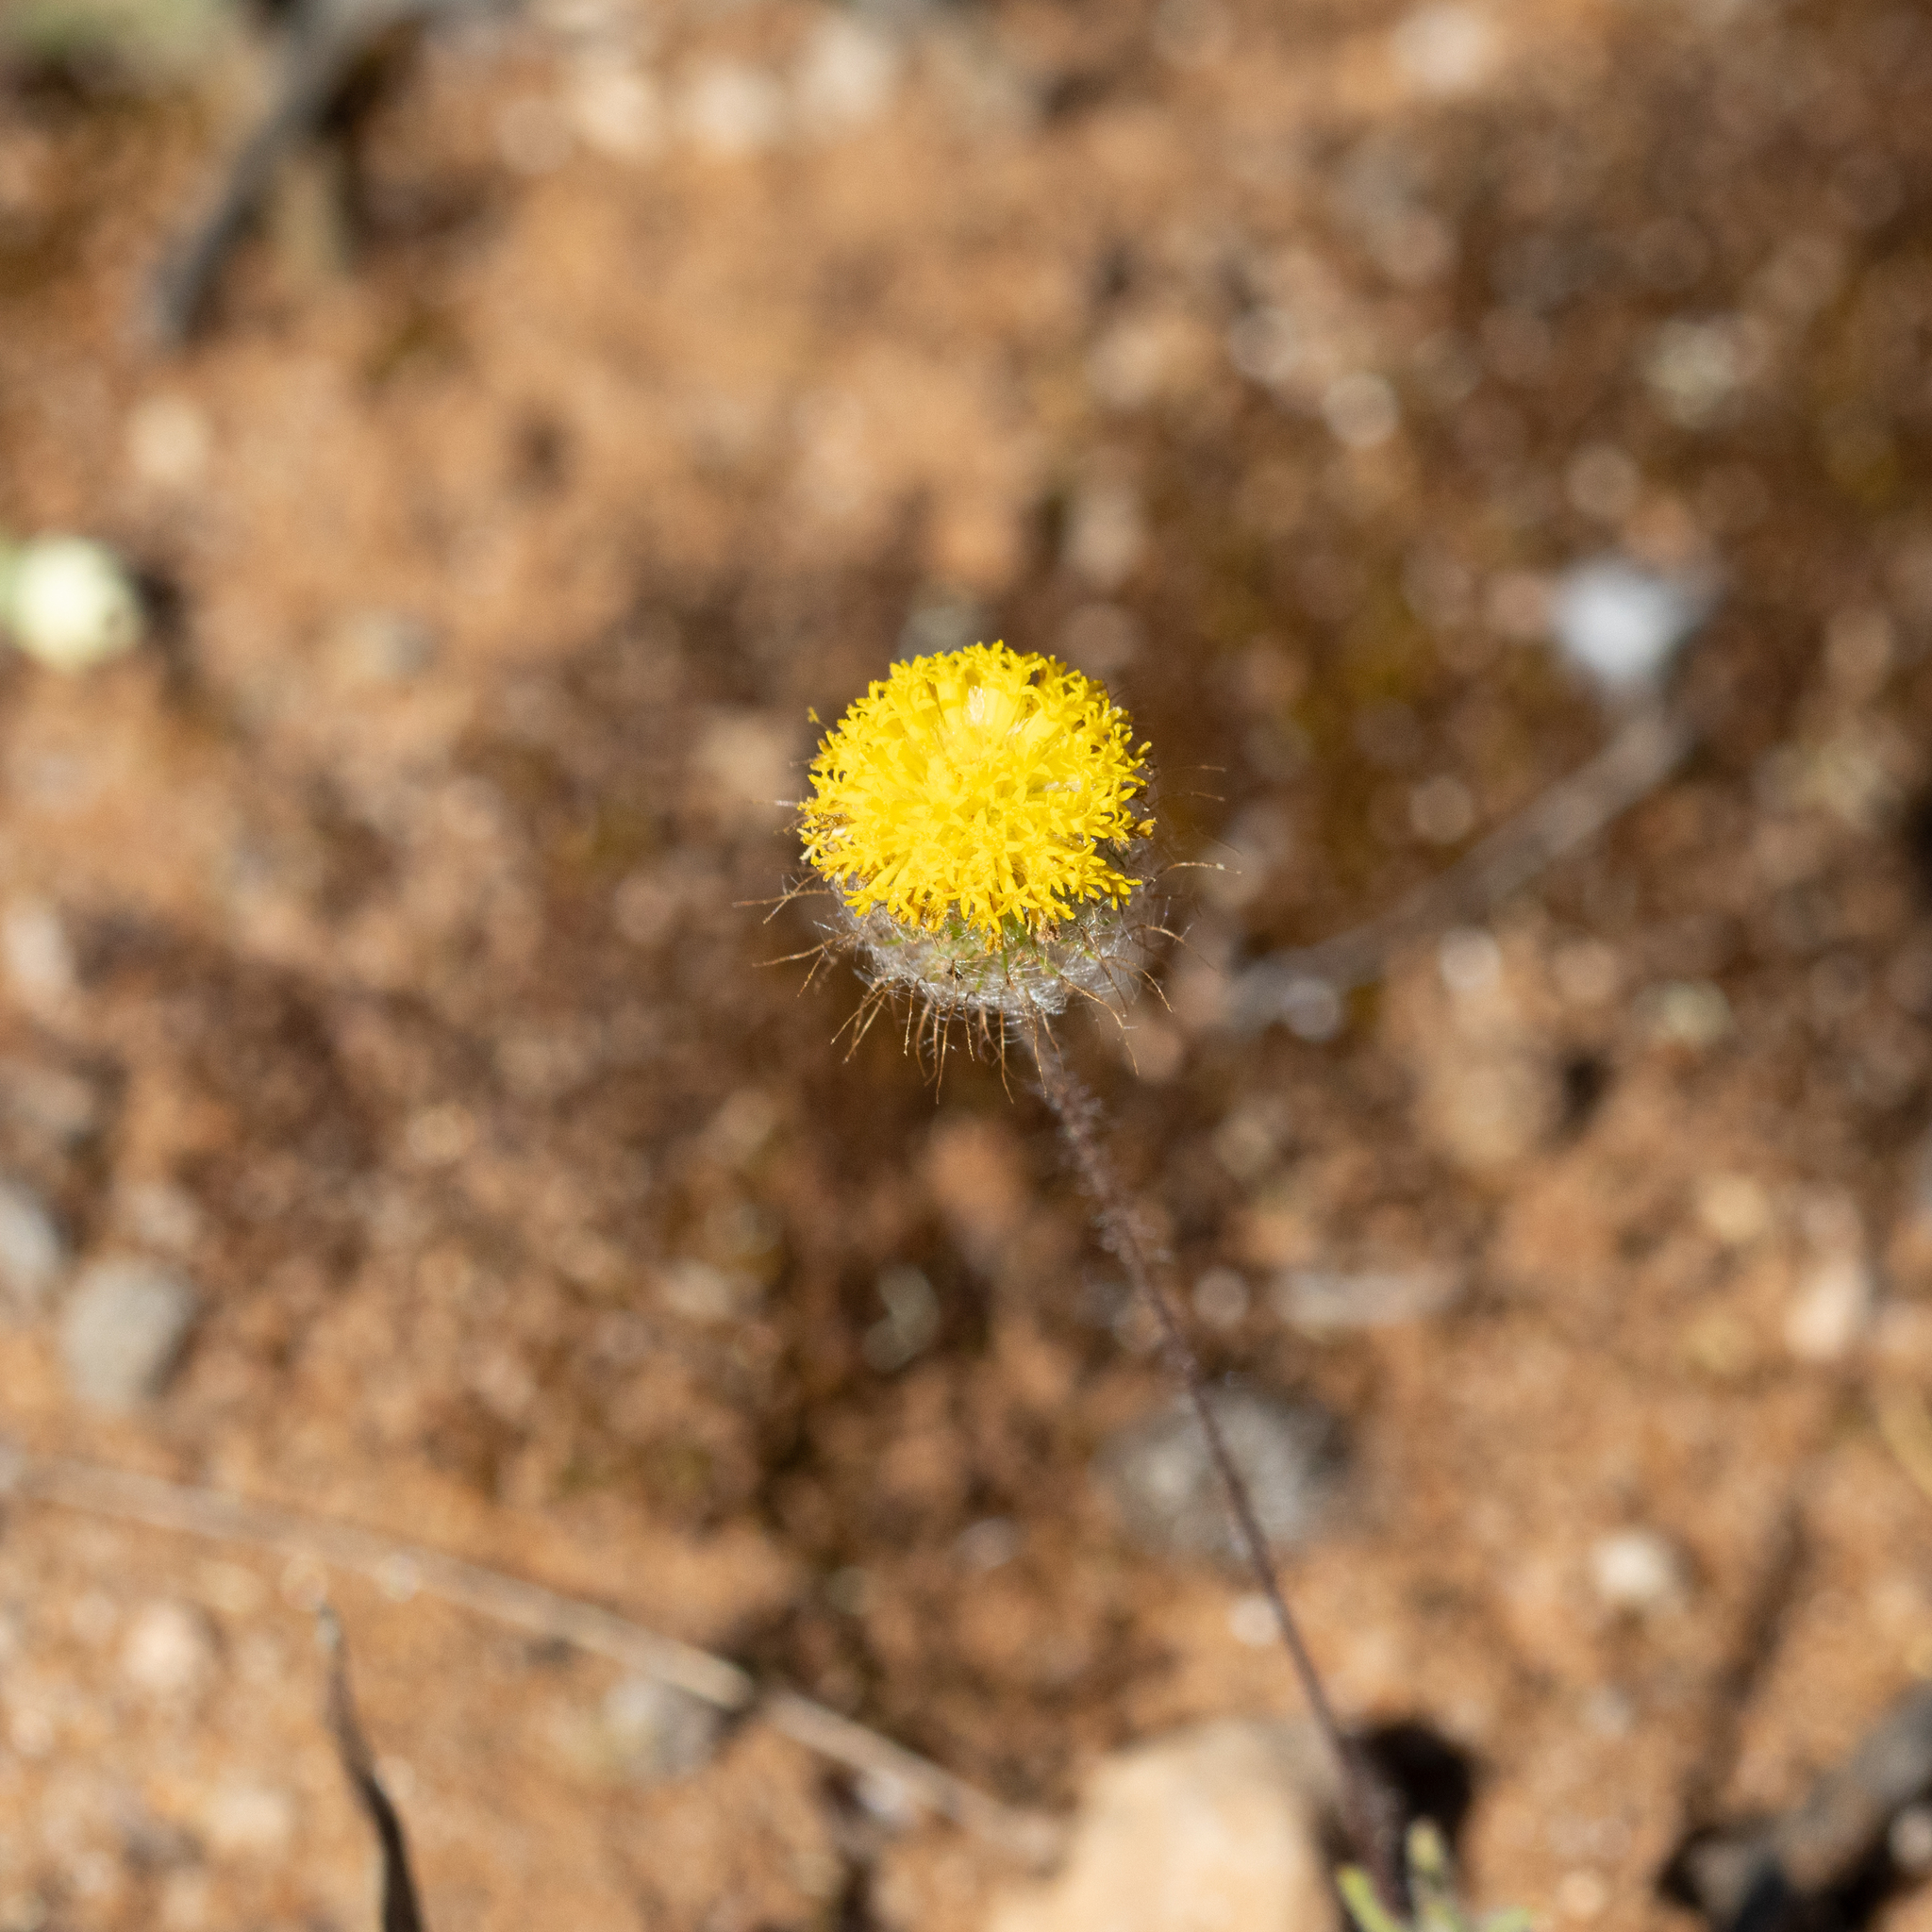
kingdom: Plantae
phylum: Tracheophyta
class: Magnoliopsida
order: Asterales
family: Asteraceae
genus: Asteridea
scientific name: Asteridea athrixioides
